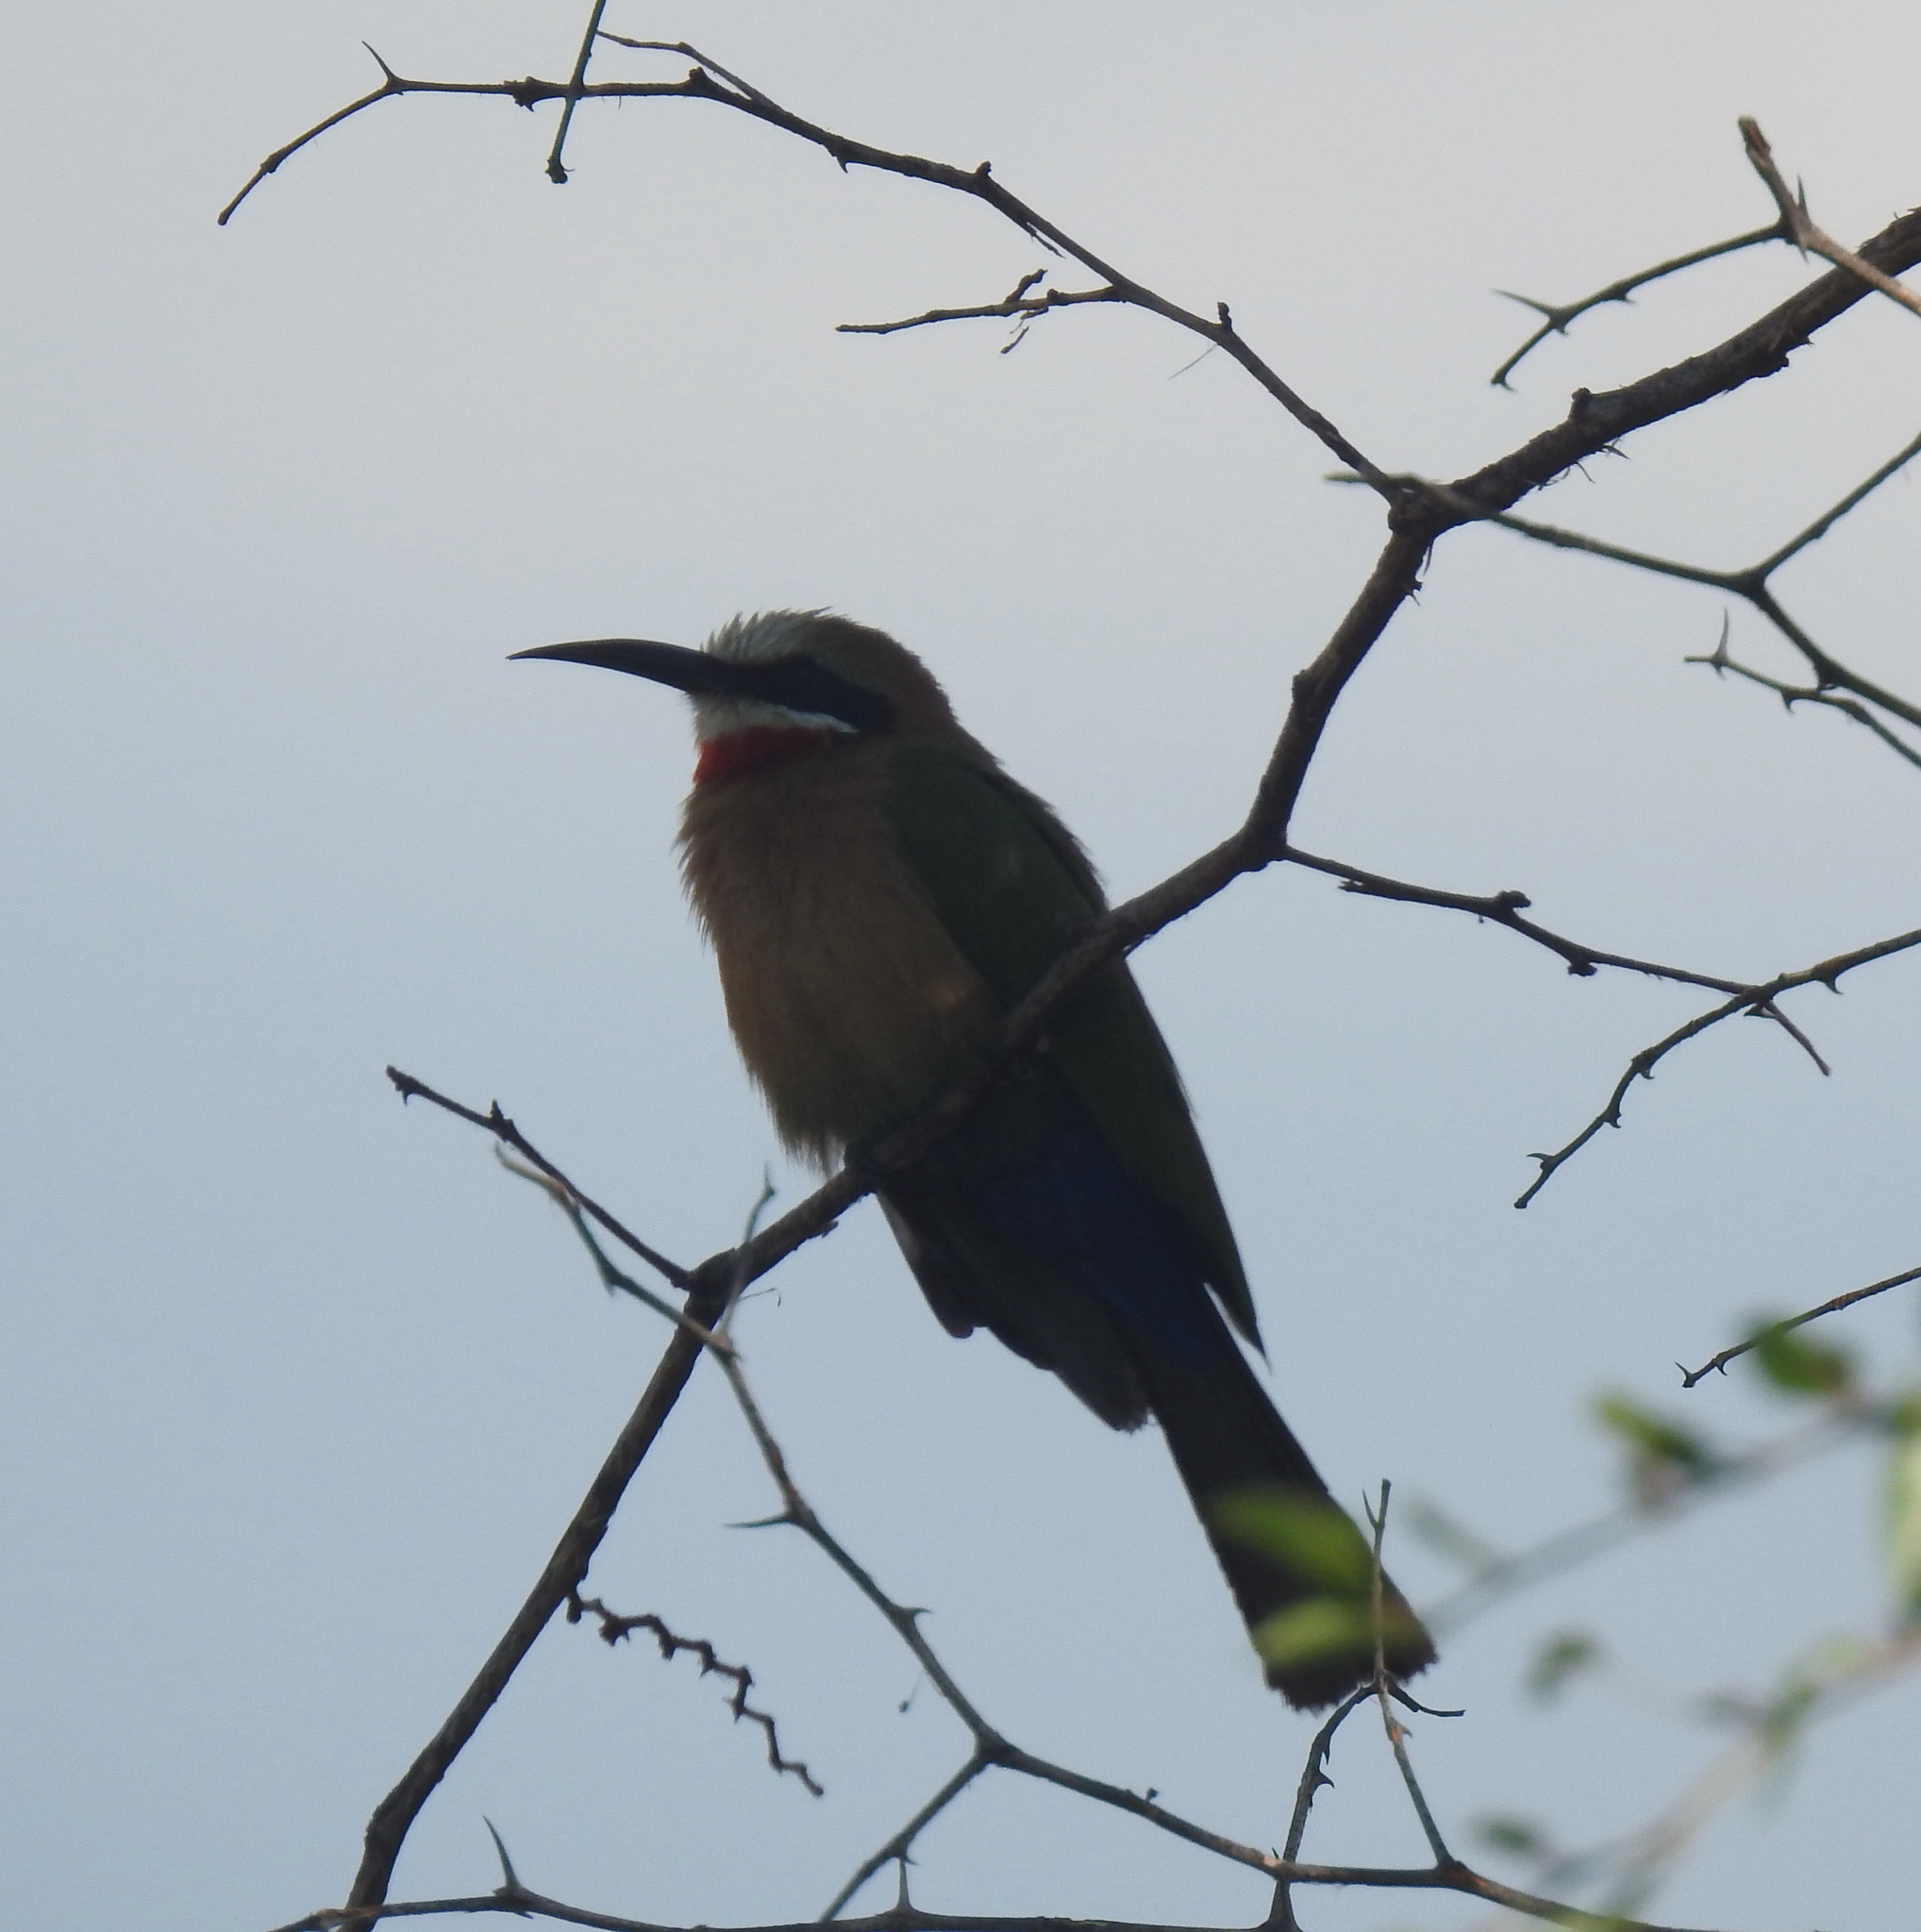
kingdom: Animalia
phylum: Chordata
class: Aves
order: Coraciiformes
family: Meropidae
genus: Merops
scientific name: Merops bullockoides
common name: White-fronted bee-eater
